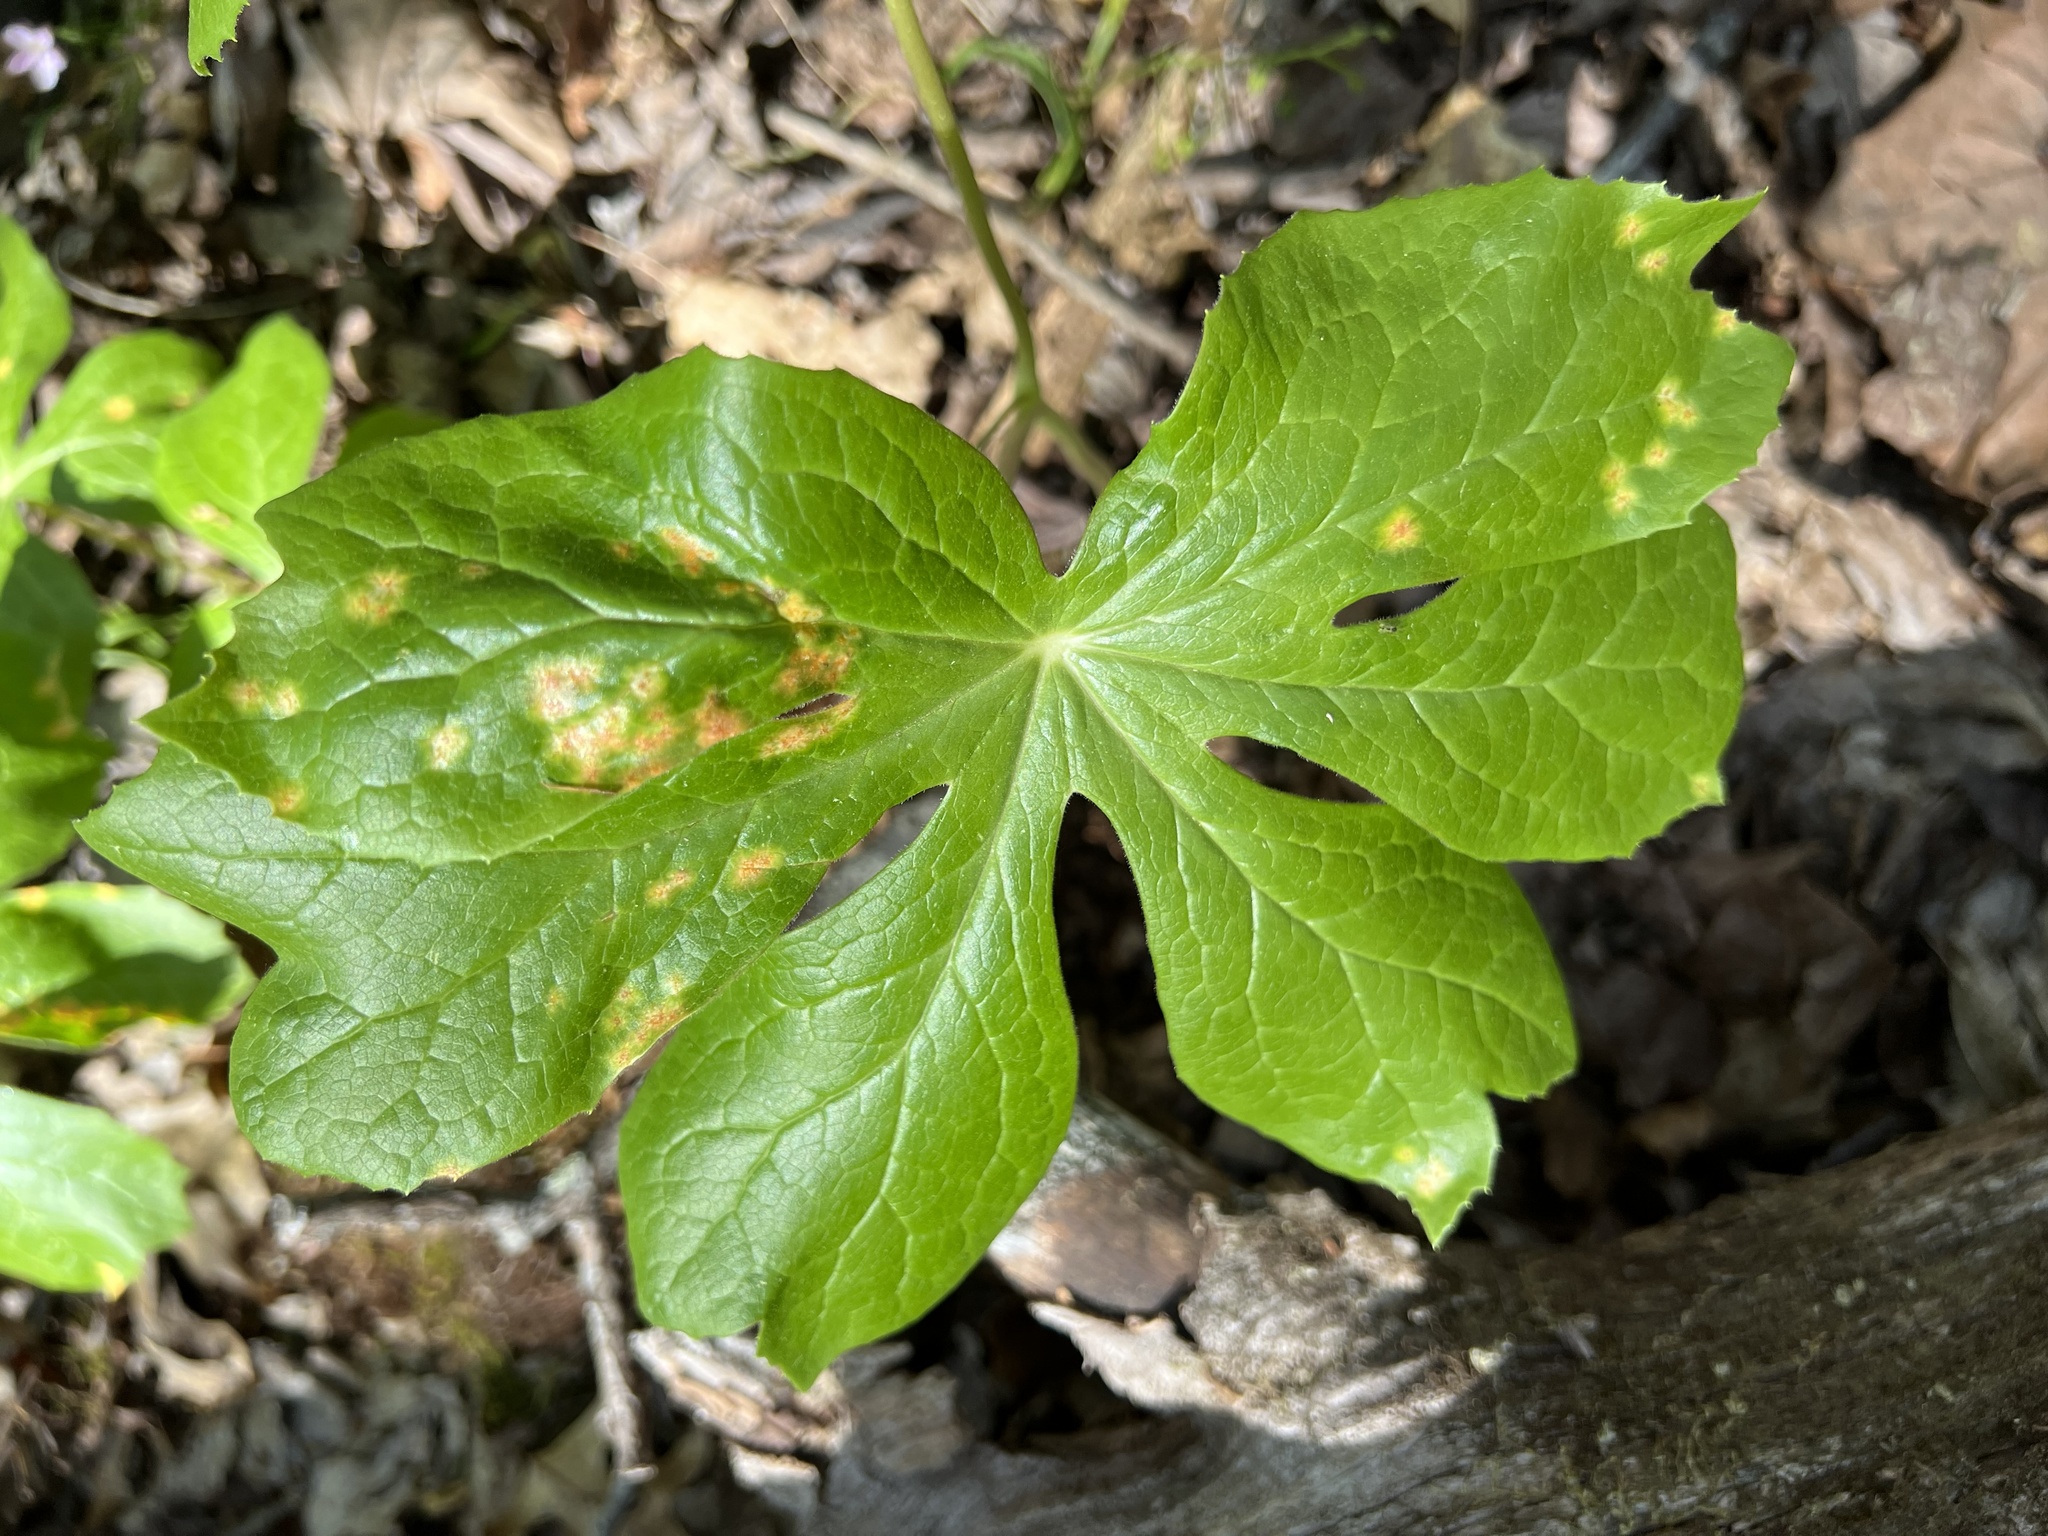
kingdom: Fungi
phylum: Basidiomycota
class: Pucciniomycetes
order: Pucciniales
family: Pucciniaceae
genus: Puccinia
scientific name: Puccinia podophylli
